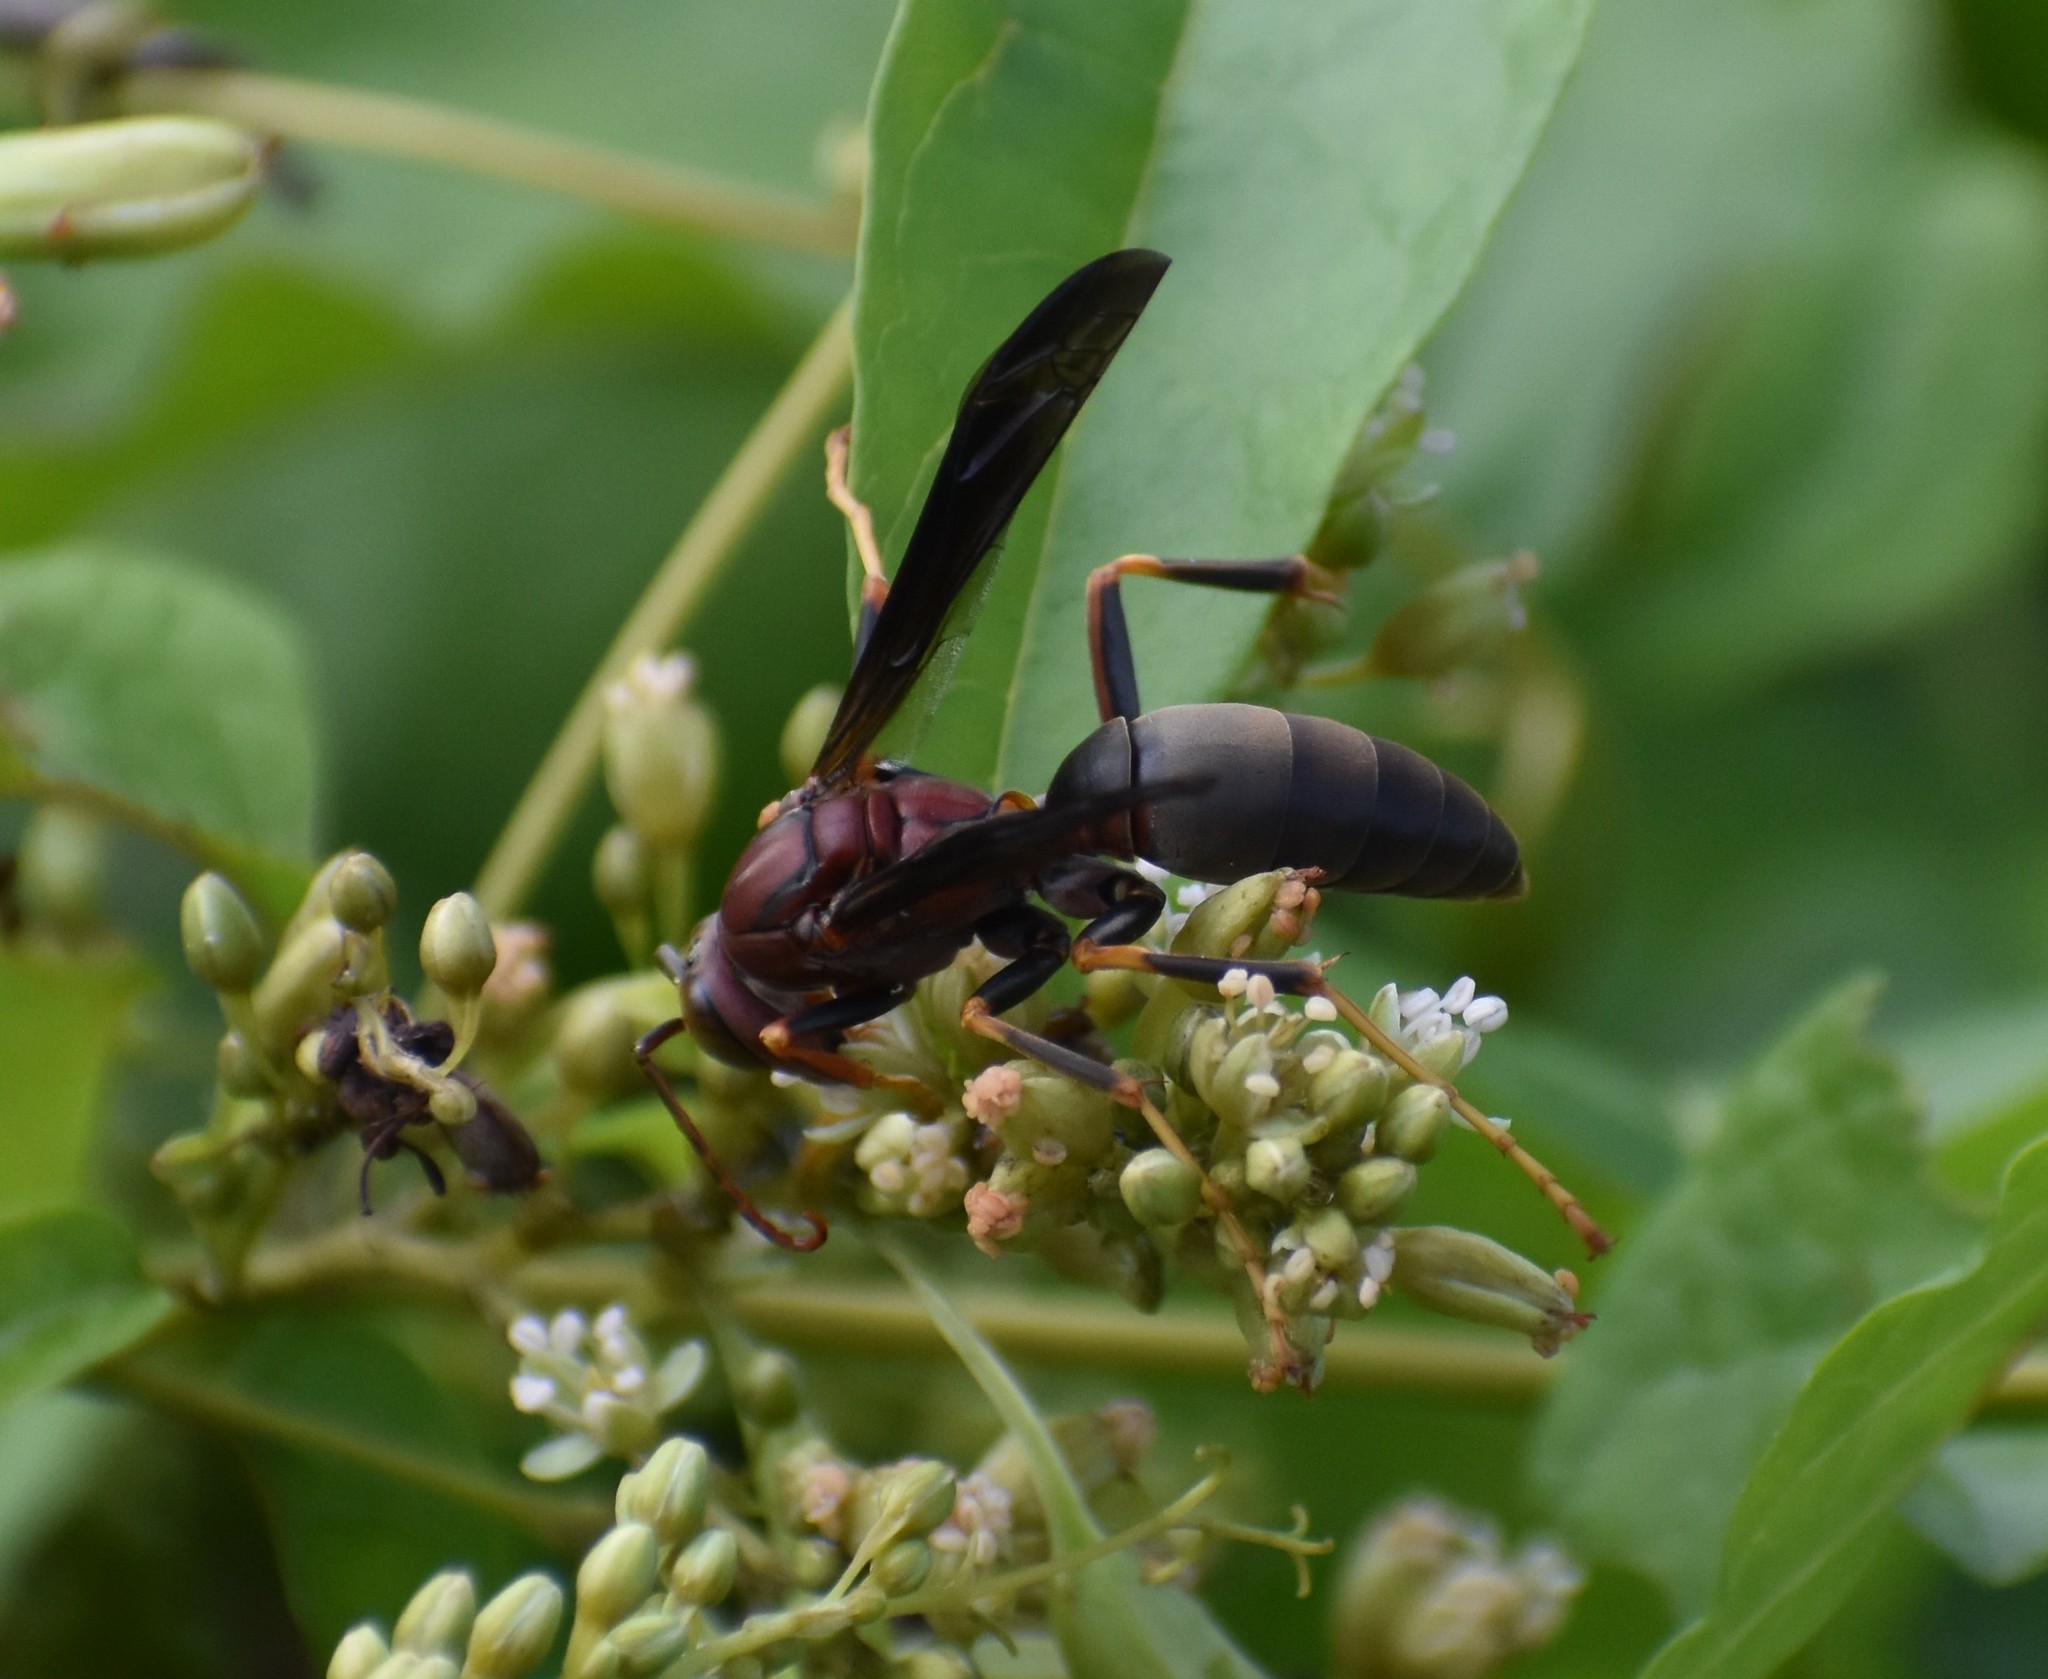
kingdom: Animalia
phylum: Arthropoda
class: Insecta
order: Hymenoptera
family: Eumenidae
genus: Polistes
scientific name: Polistes metricus
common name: Metric paper wasp
